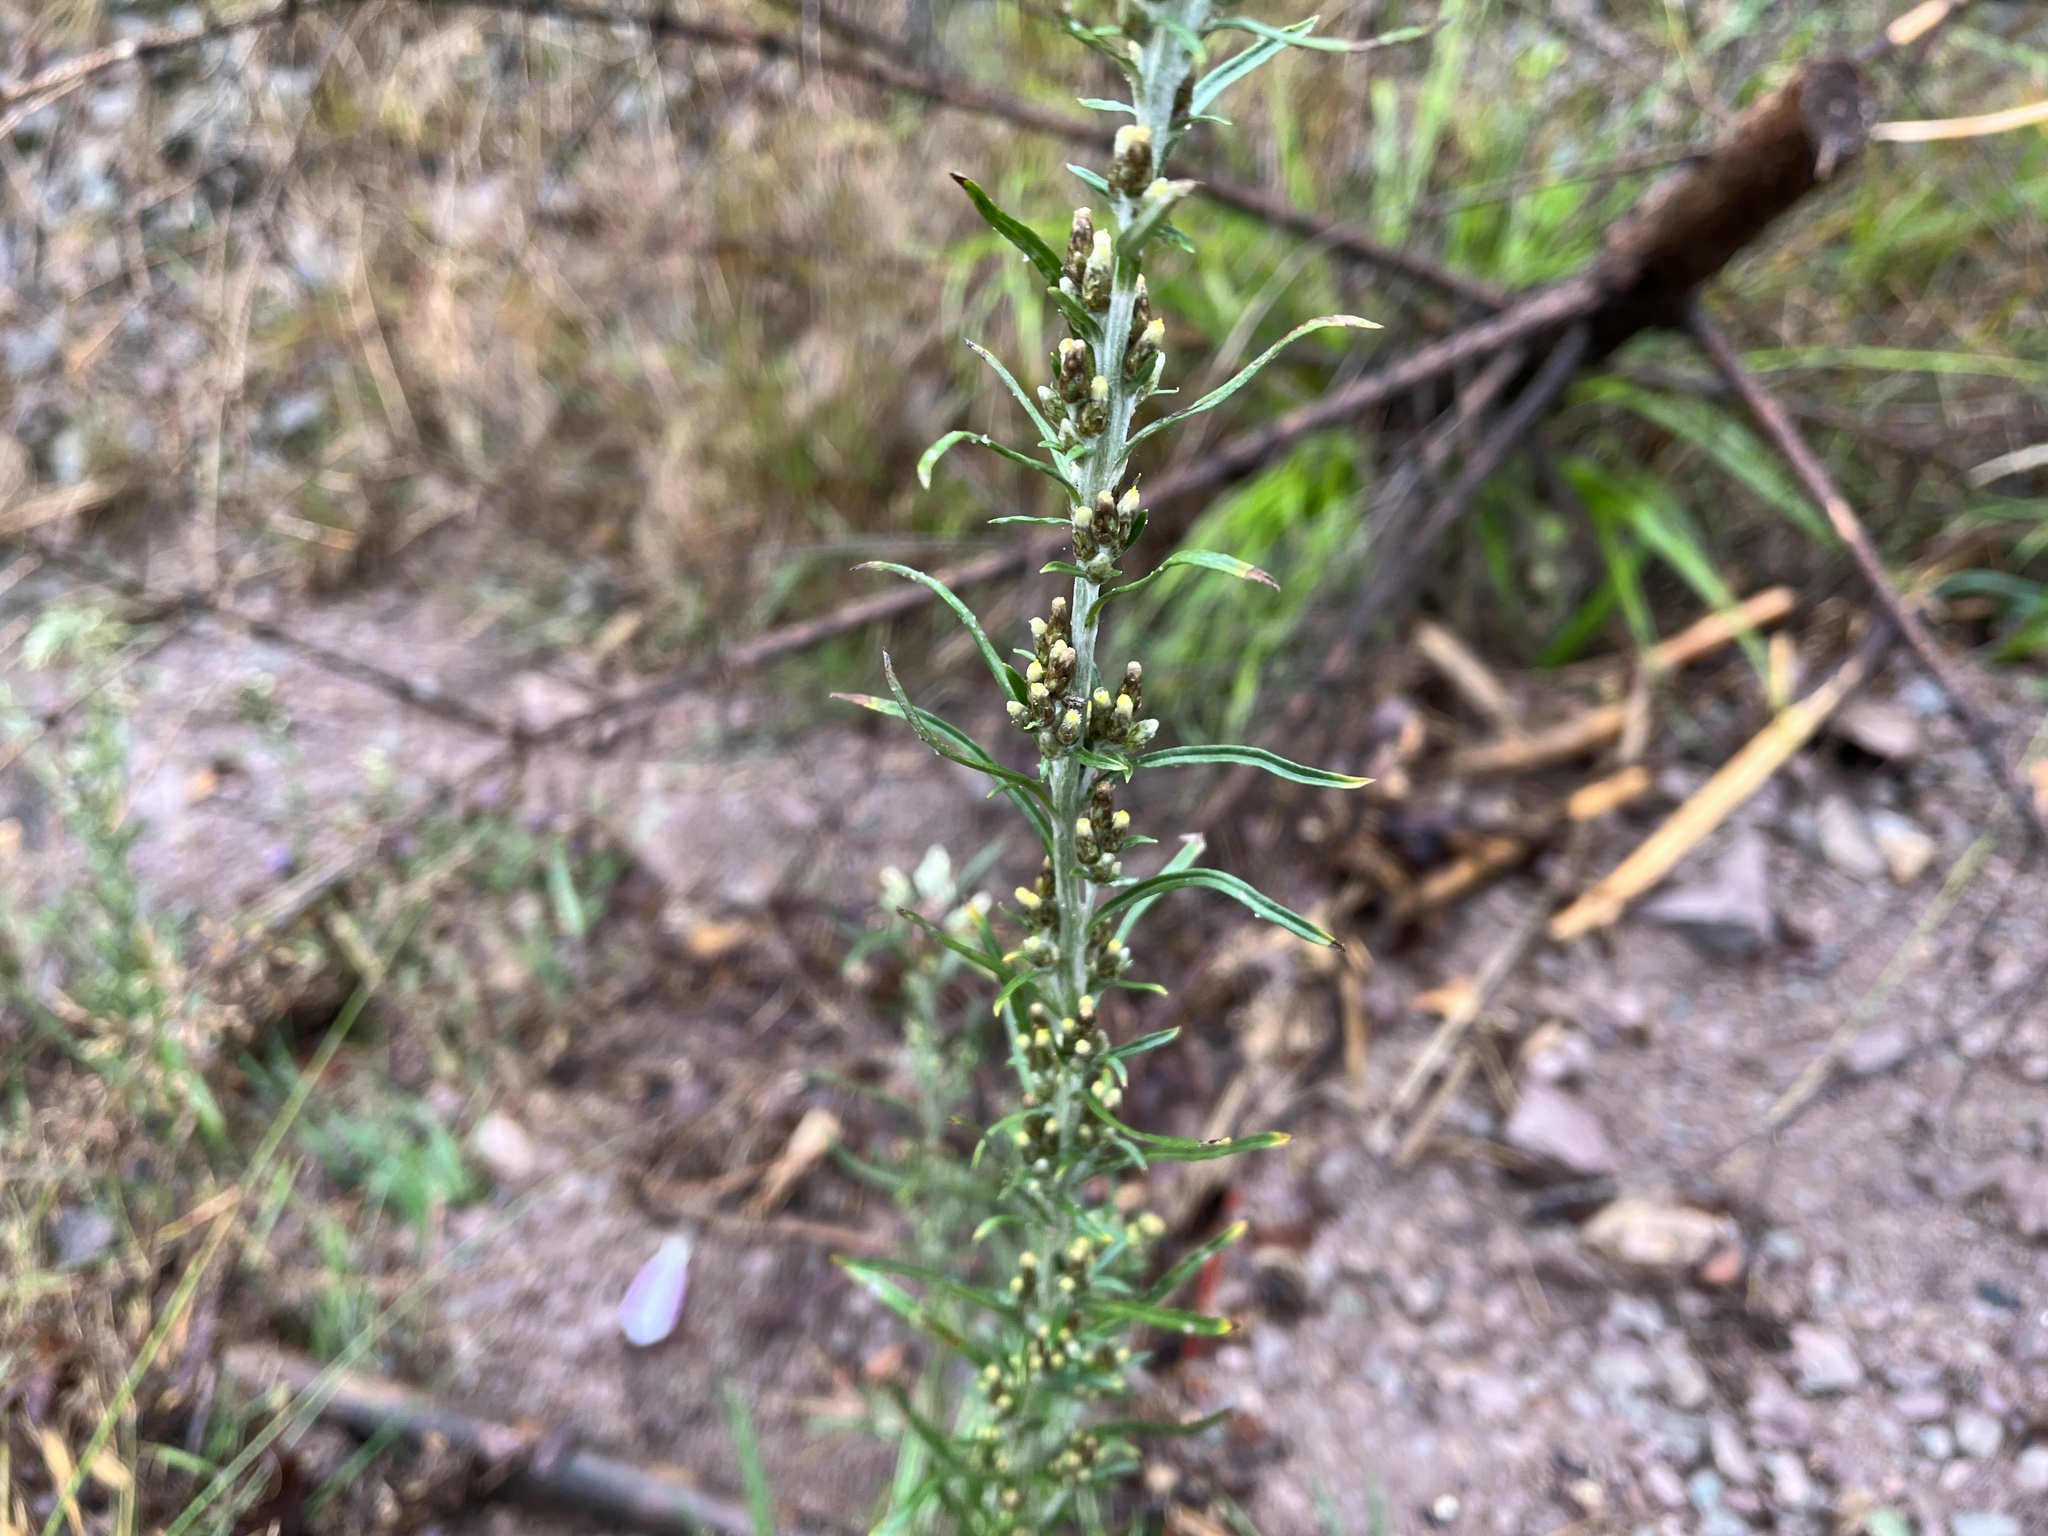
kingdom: Plantae
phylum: Tracheophyta
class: Magnoliopsida
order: Asterales
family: Asteraceae
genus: Omalotheca
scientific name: Omalotheca sylvatica
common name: Heath cudweed
